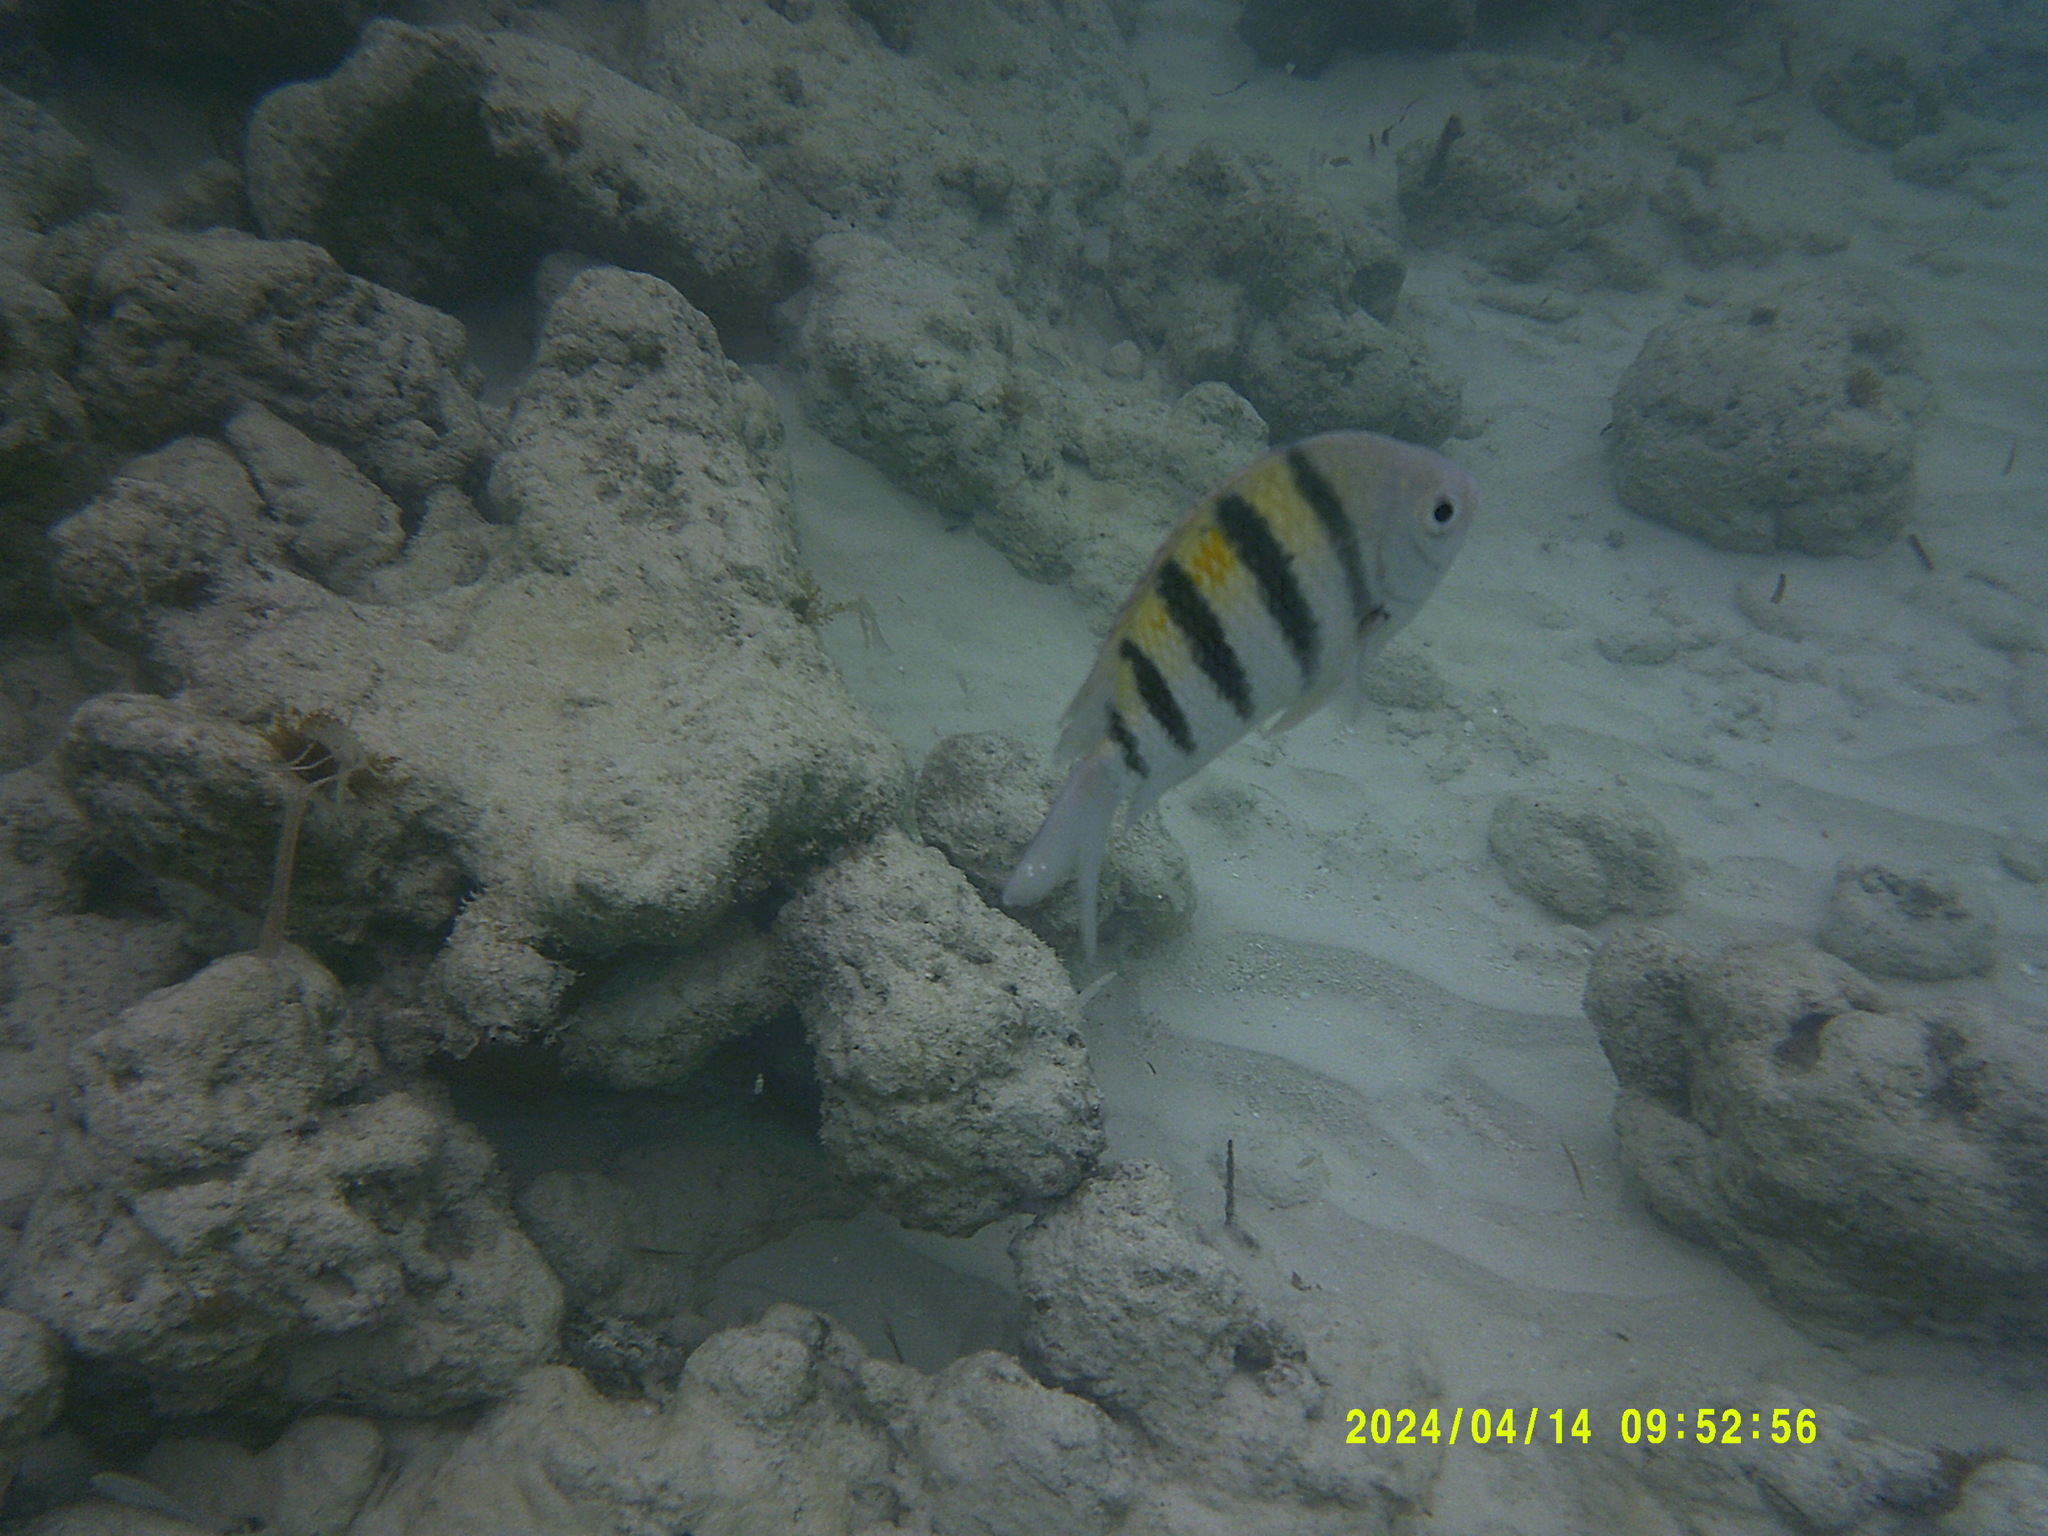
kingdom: Animalia
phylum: Chordata
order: Perciformes
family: Pomacentridae
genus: Abudefduf
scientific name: Abudefduf saxatilis
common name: Sergeant major
